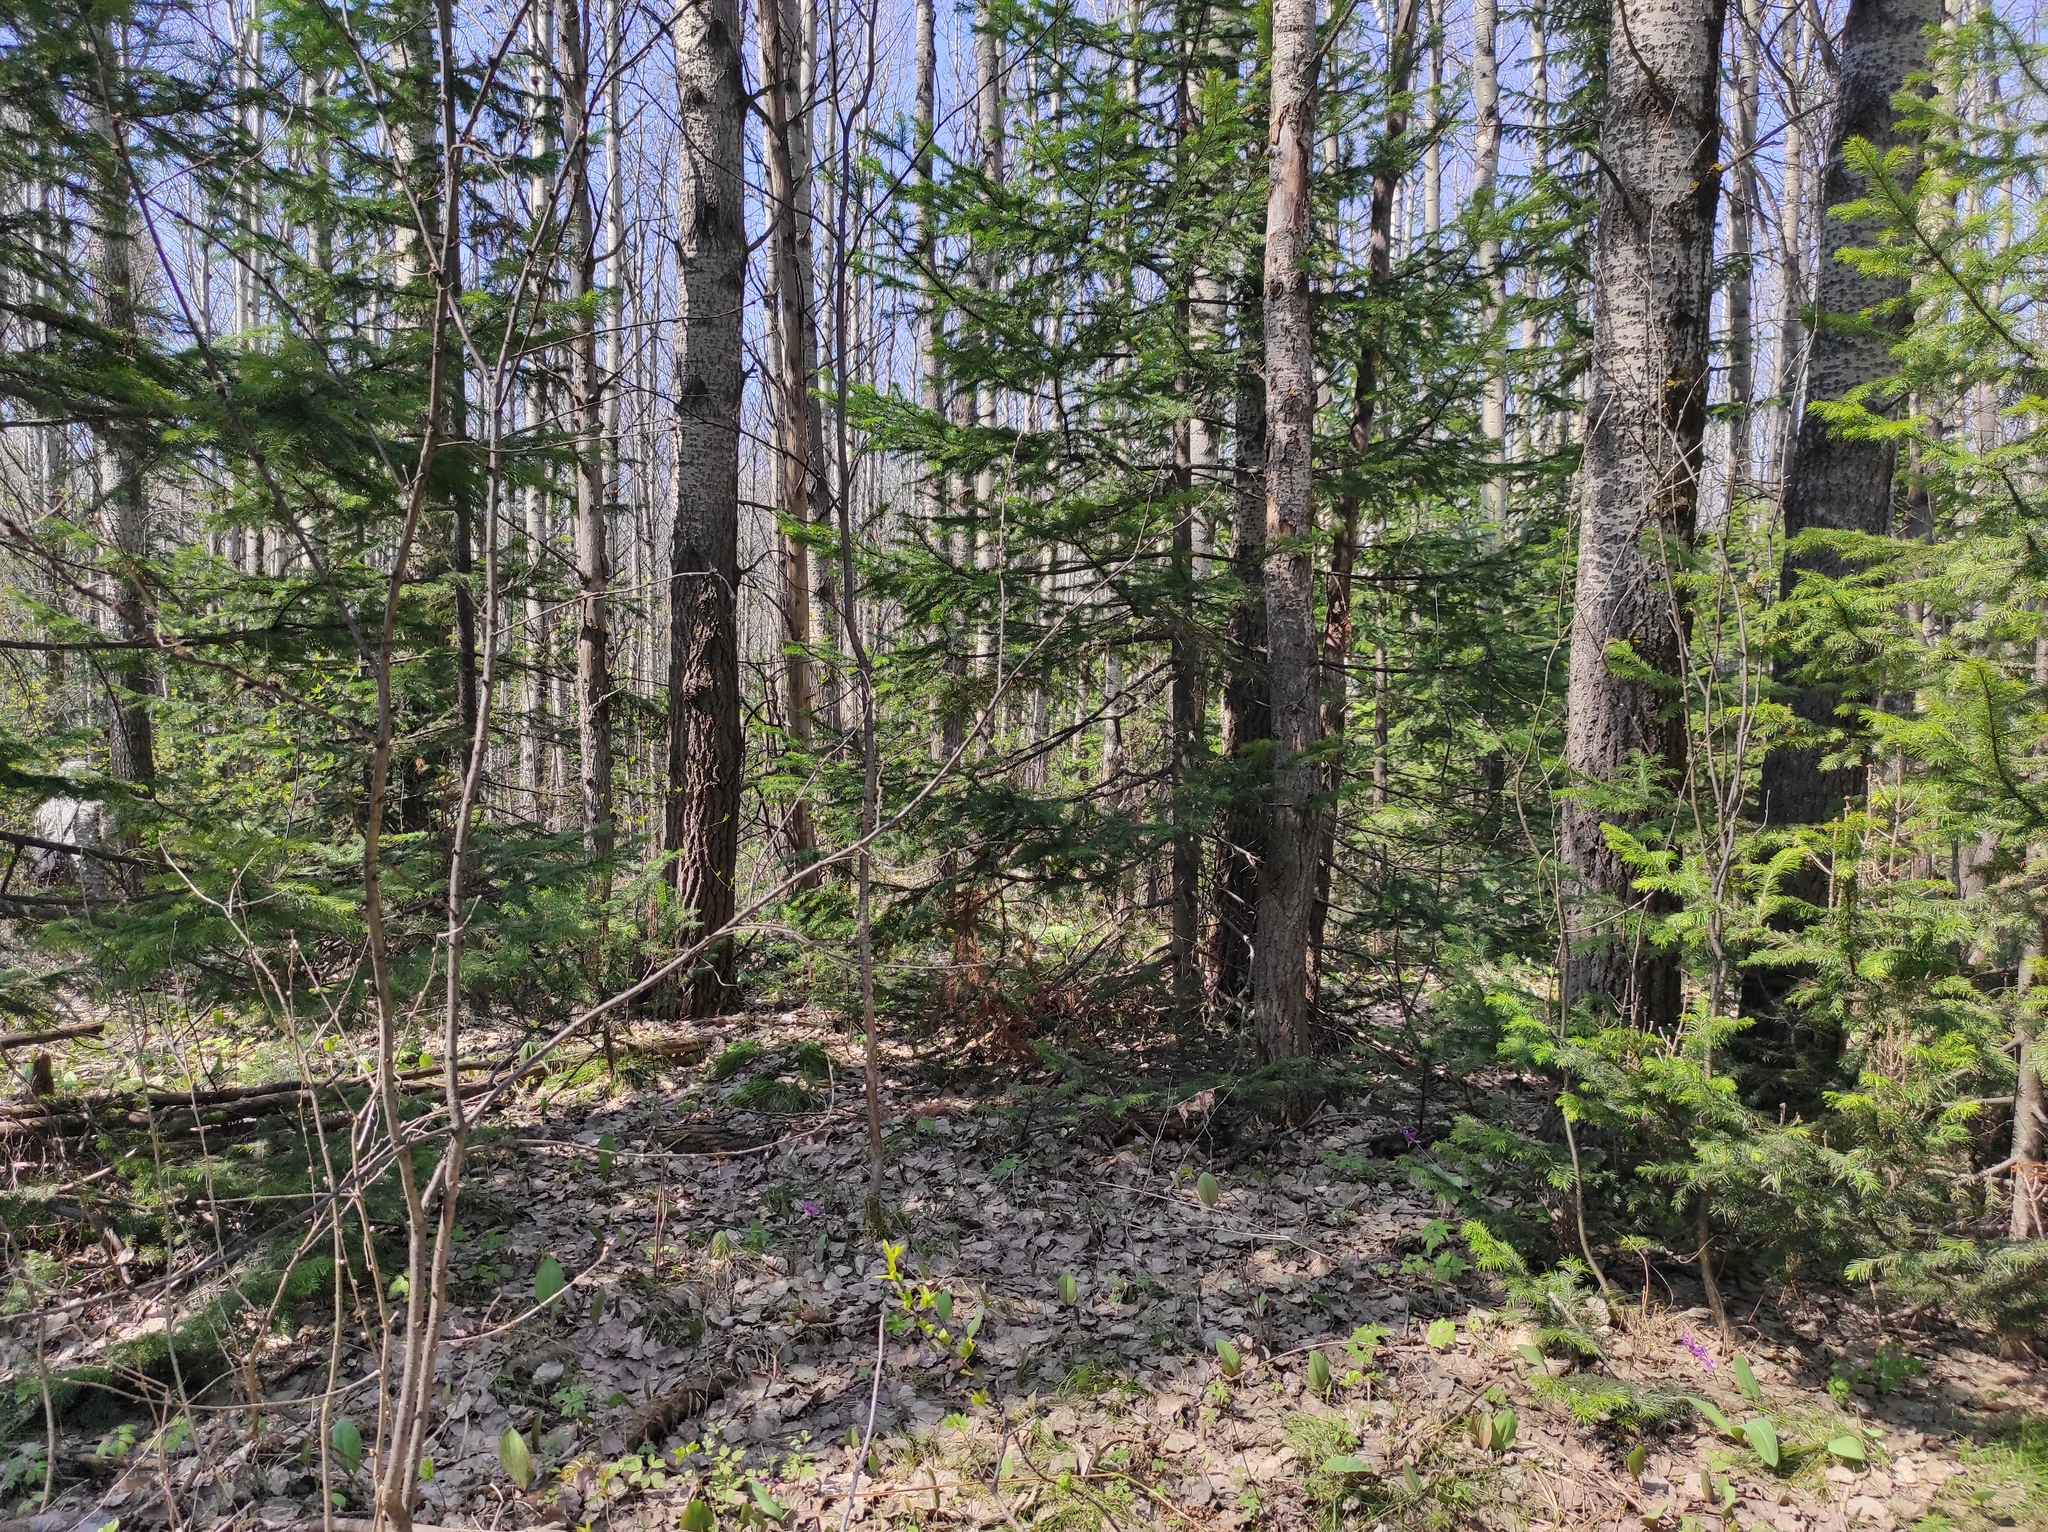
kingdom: Plantae
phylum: Tracheophyta
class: Magnoliopsida
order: Malpighiales
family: Salicaceae
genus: Populus
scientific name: Populus tremula
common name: European aspen
